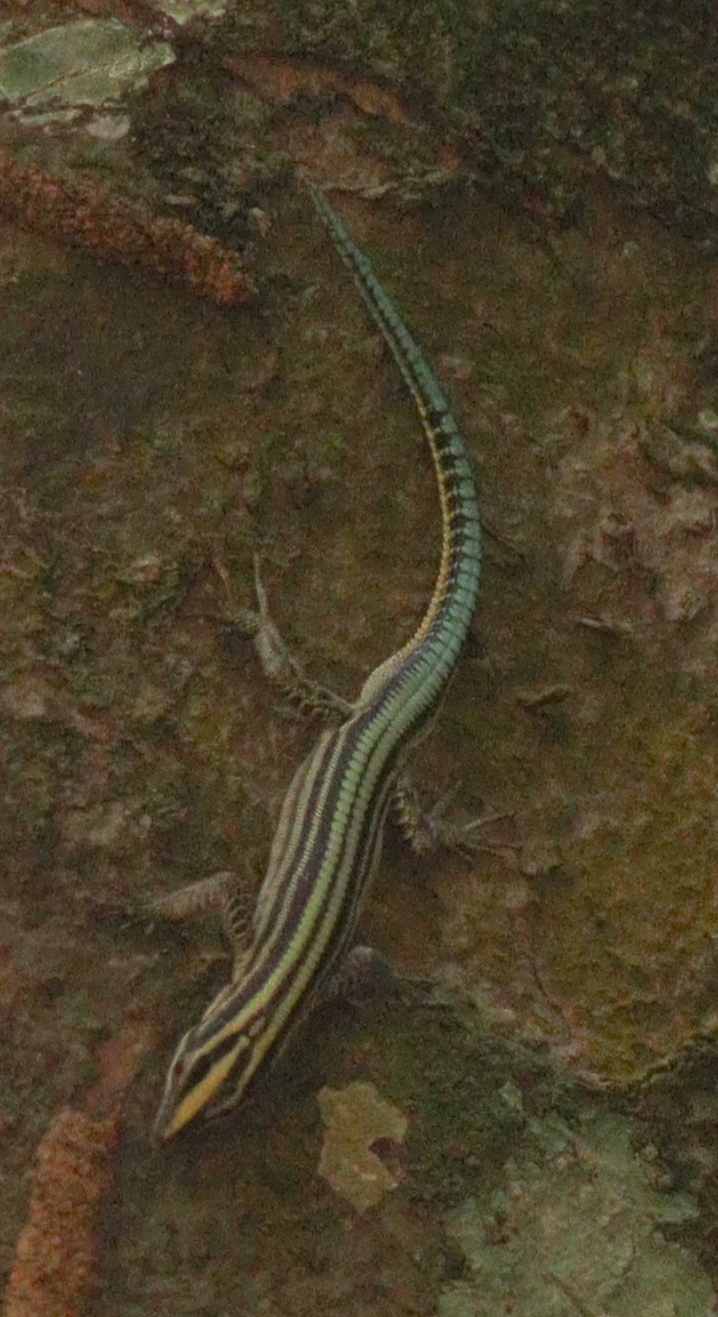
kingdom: Animalia
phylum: Chordata
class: Squamata
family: Lacertidae
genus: Holaspis
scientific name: Holaspis guentheri
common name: Sawtail lizard
